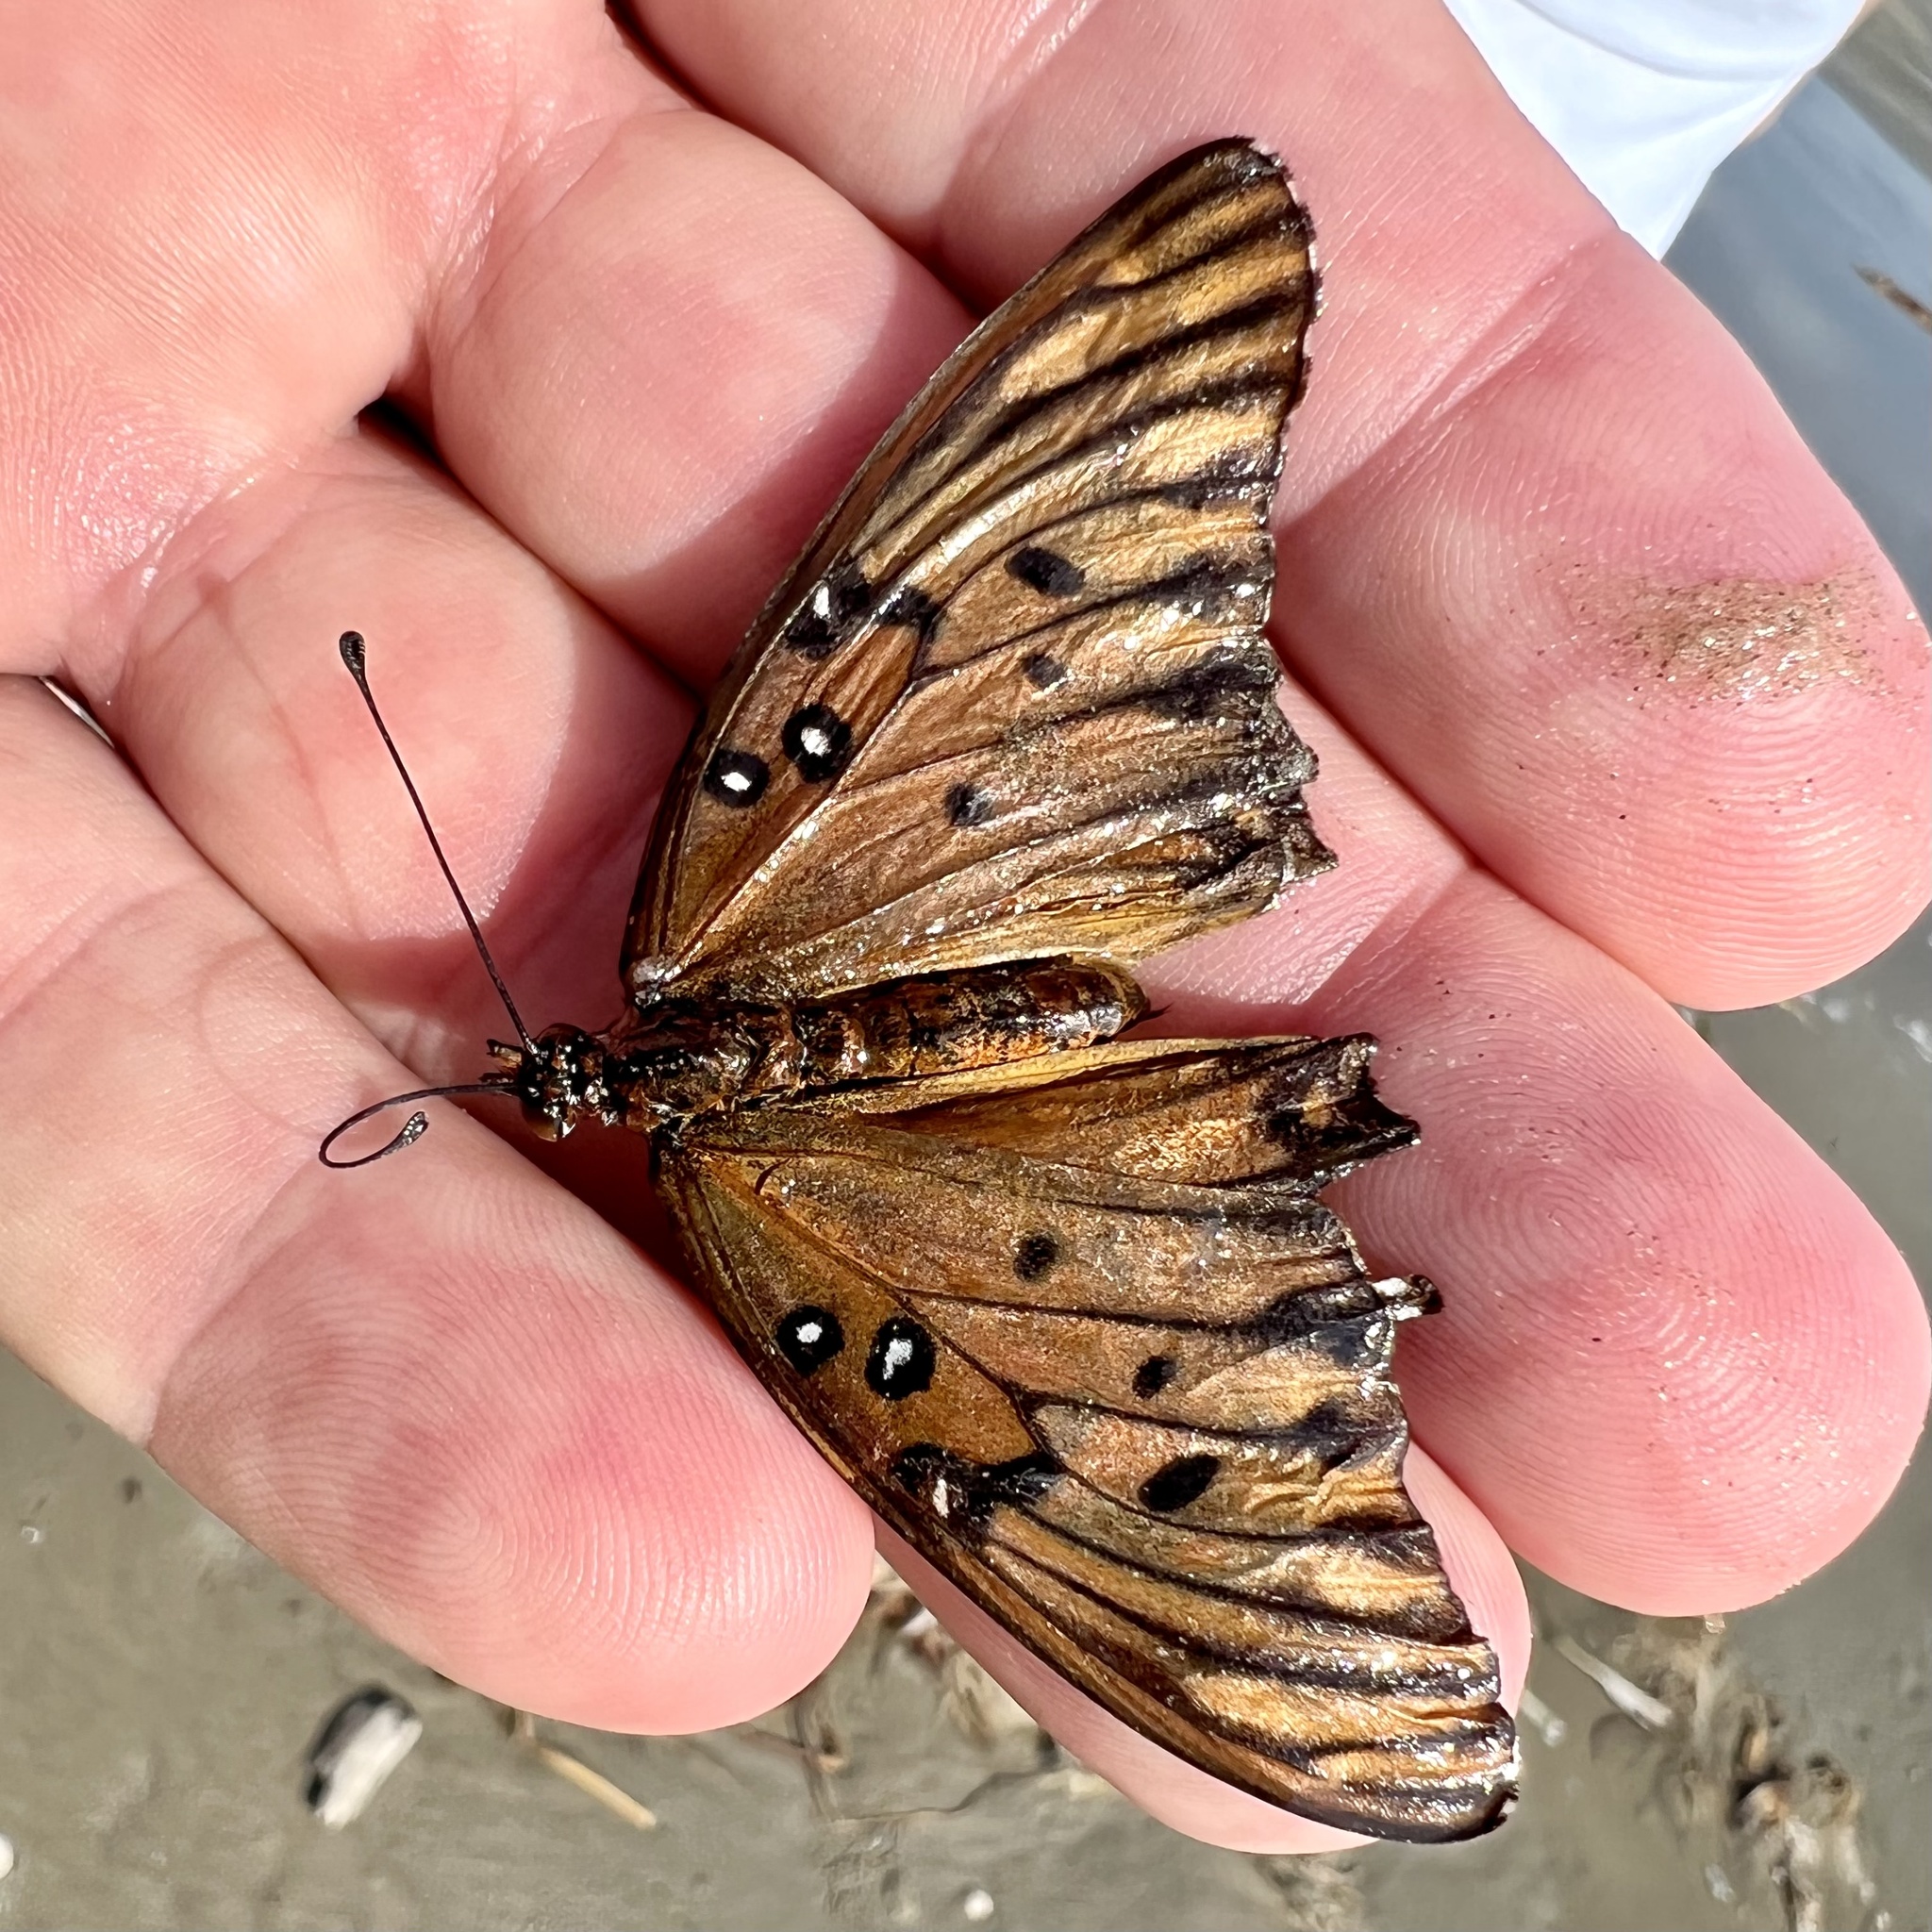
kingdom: Animalia
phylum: Arthropoda
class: Insecta
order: Lepidoptera
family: Nymphalidae
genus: Dione
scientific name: Dione vanillae
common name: Gulf fritillary
